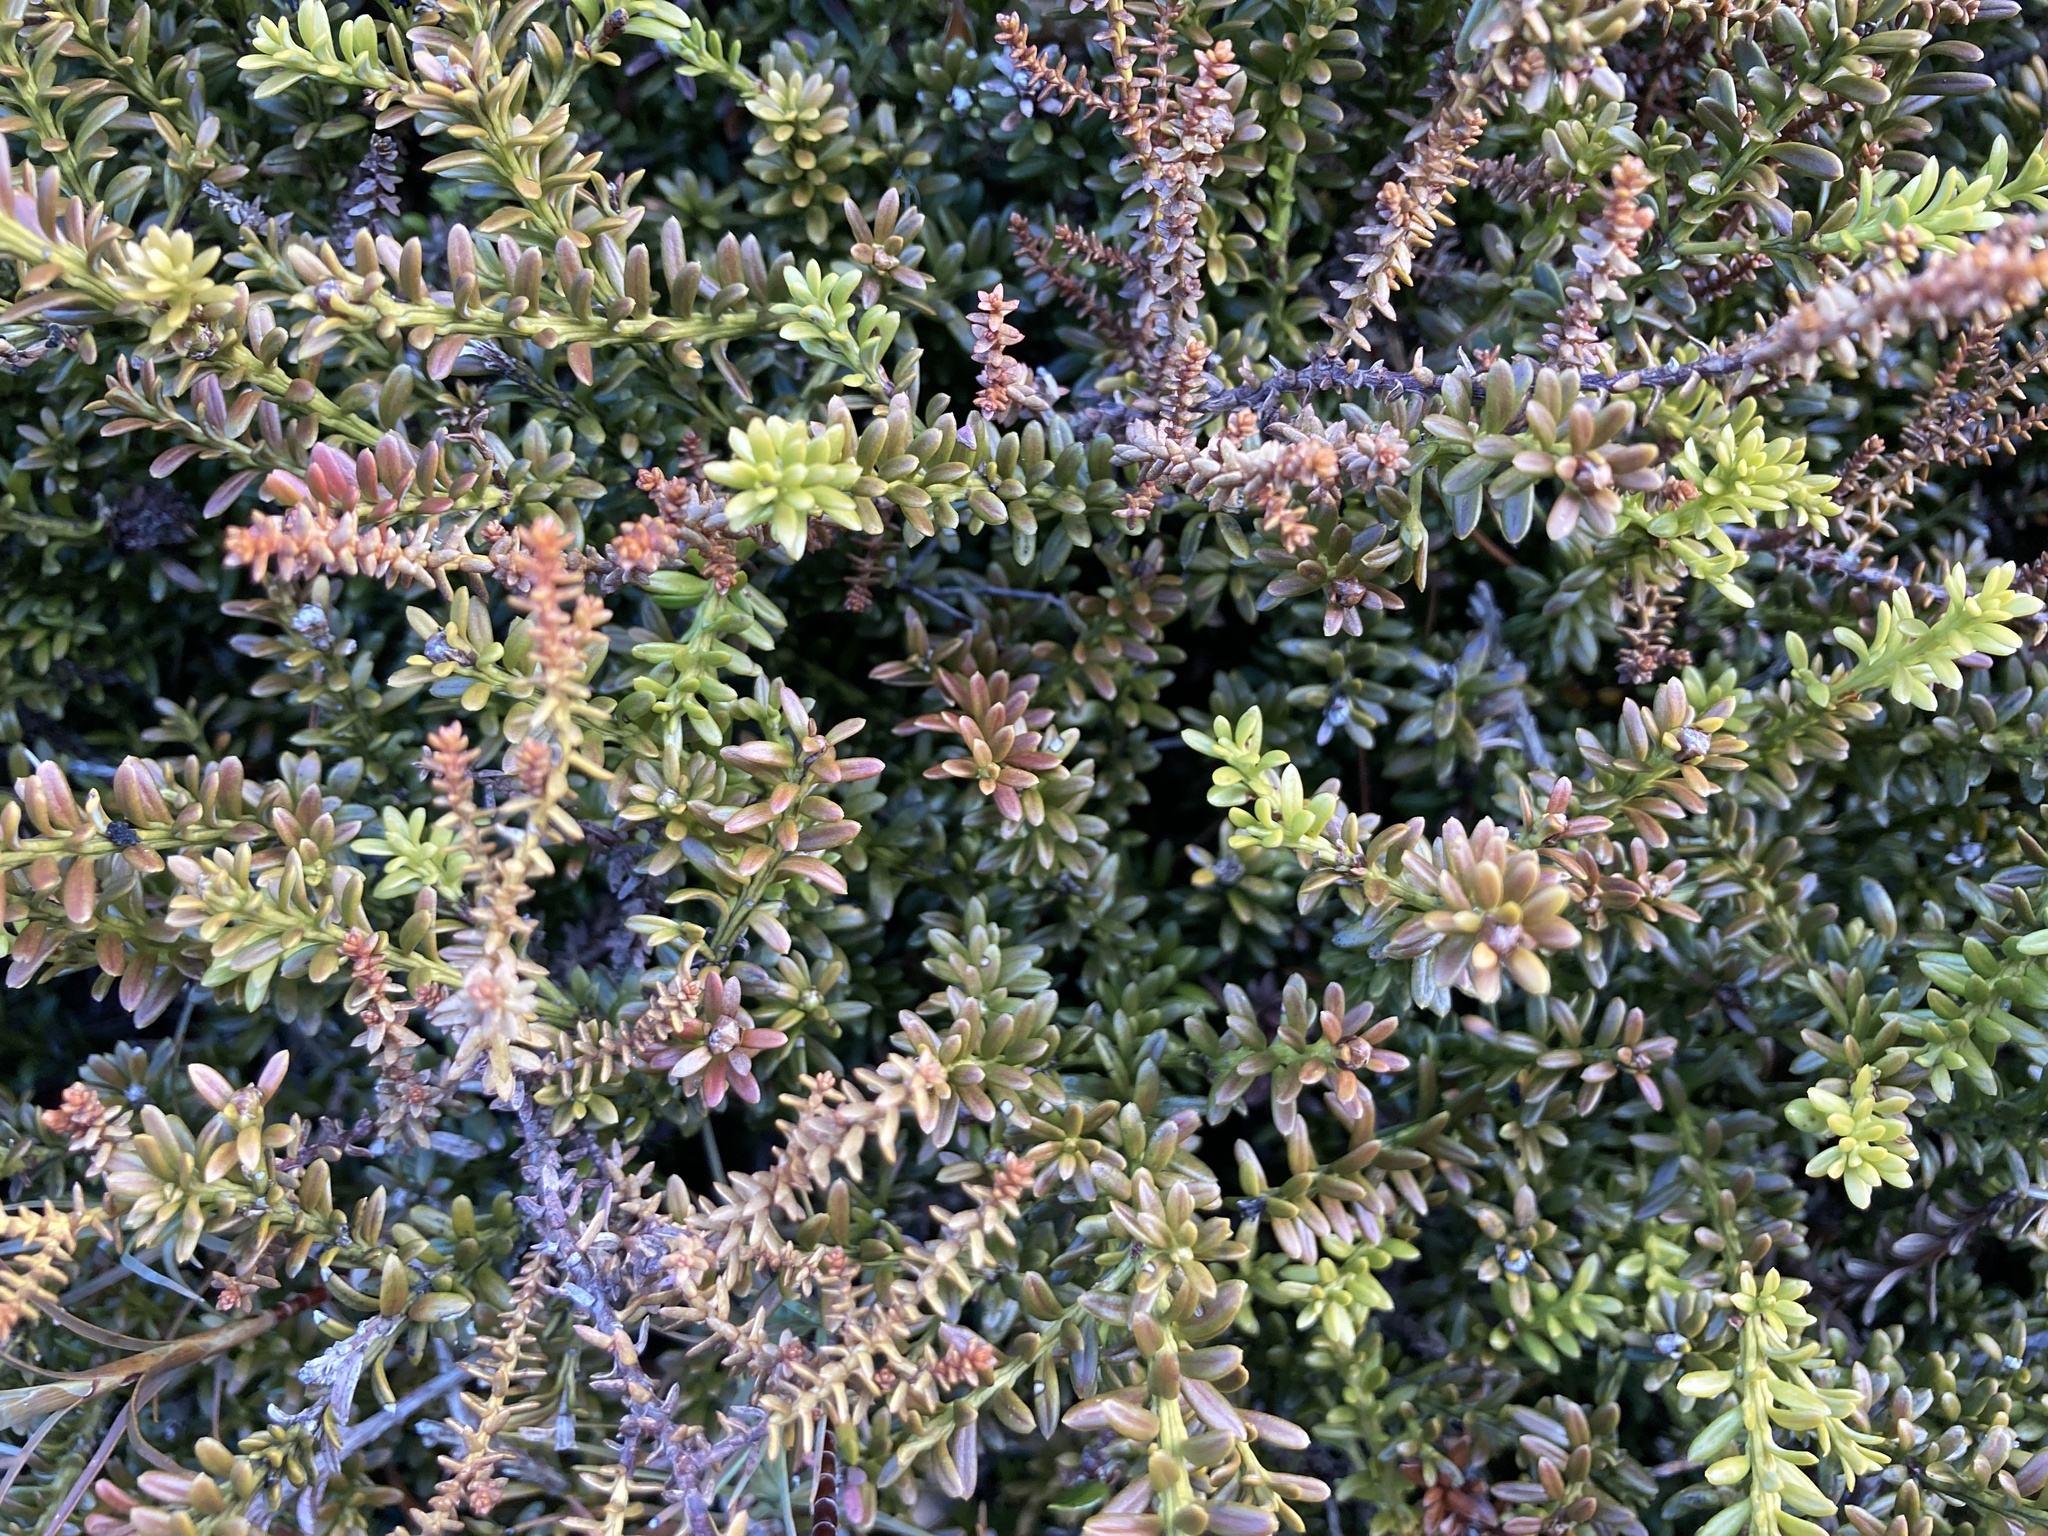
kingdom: Plantae
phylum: Tracheophyta
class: Pinopsida
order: Pinales
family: Podocarpaceae
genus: Lepidothamnus
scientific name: Lepidothamnus laxifolius
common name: Pygmy pine
